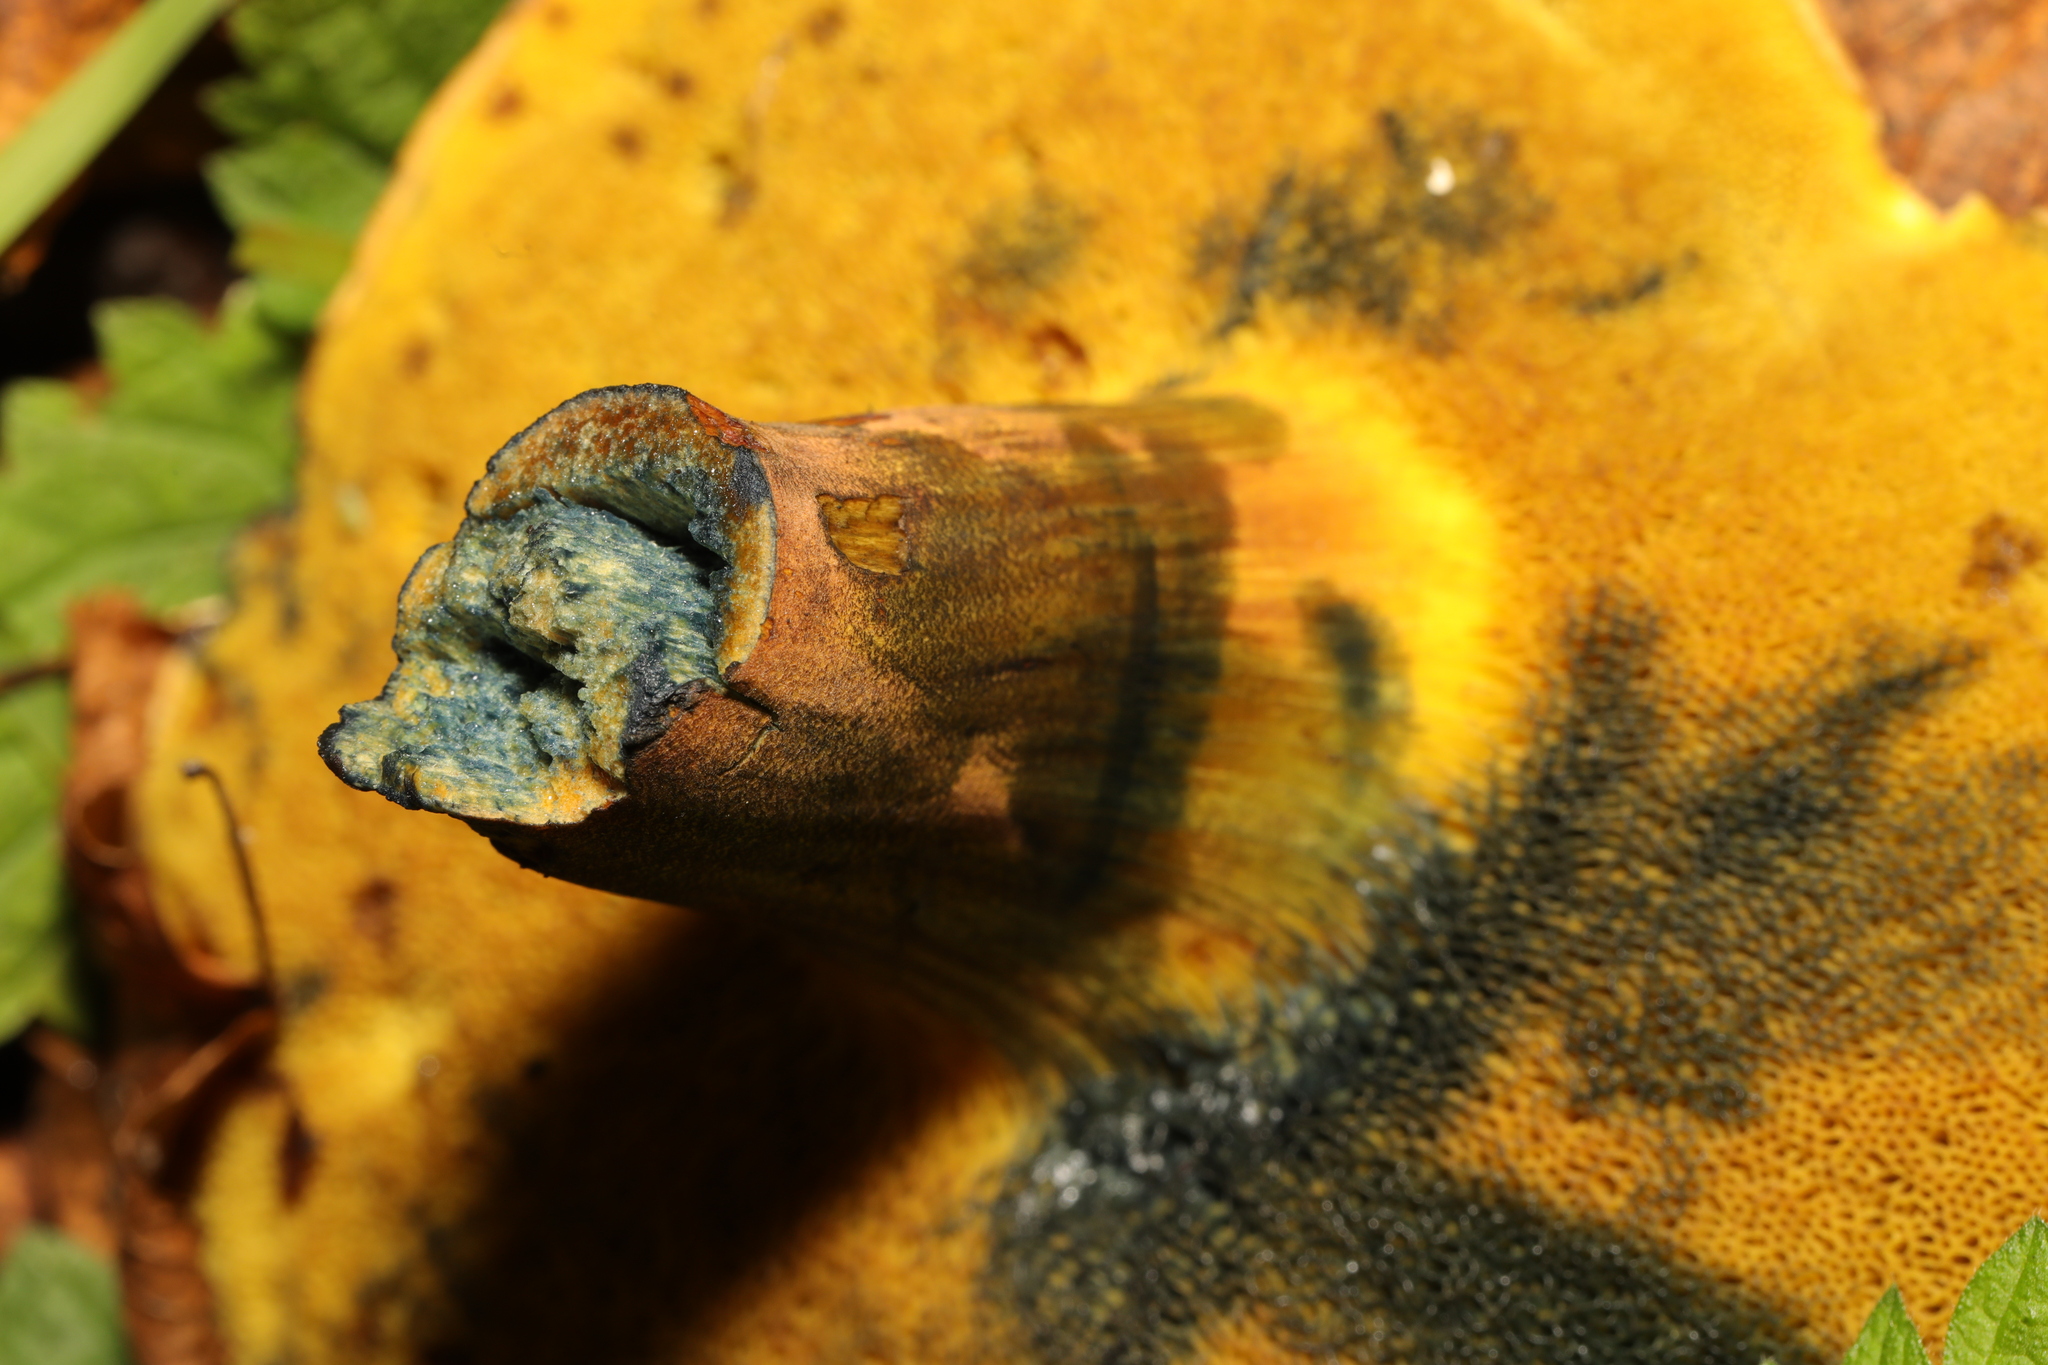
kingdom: Fungi
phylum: Basidiomycota
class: Agaricomycetes
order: Boletales
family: Boletaceae
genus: Cyanoboletus
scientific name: Cyanoboletus pulverulentus
